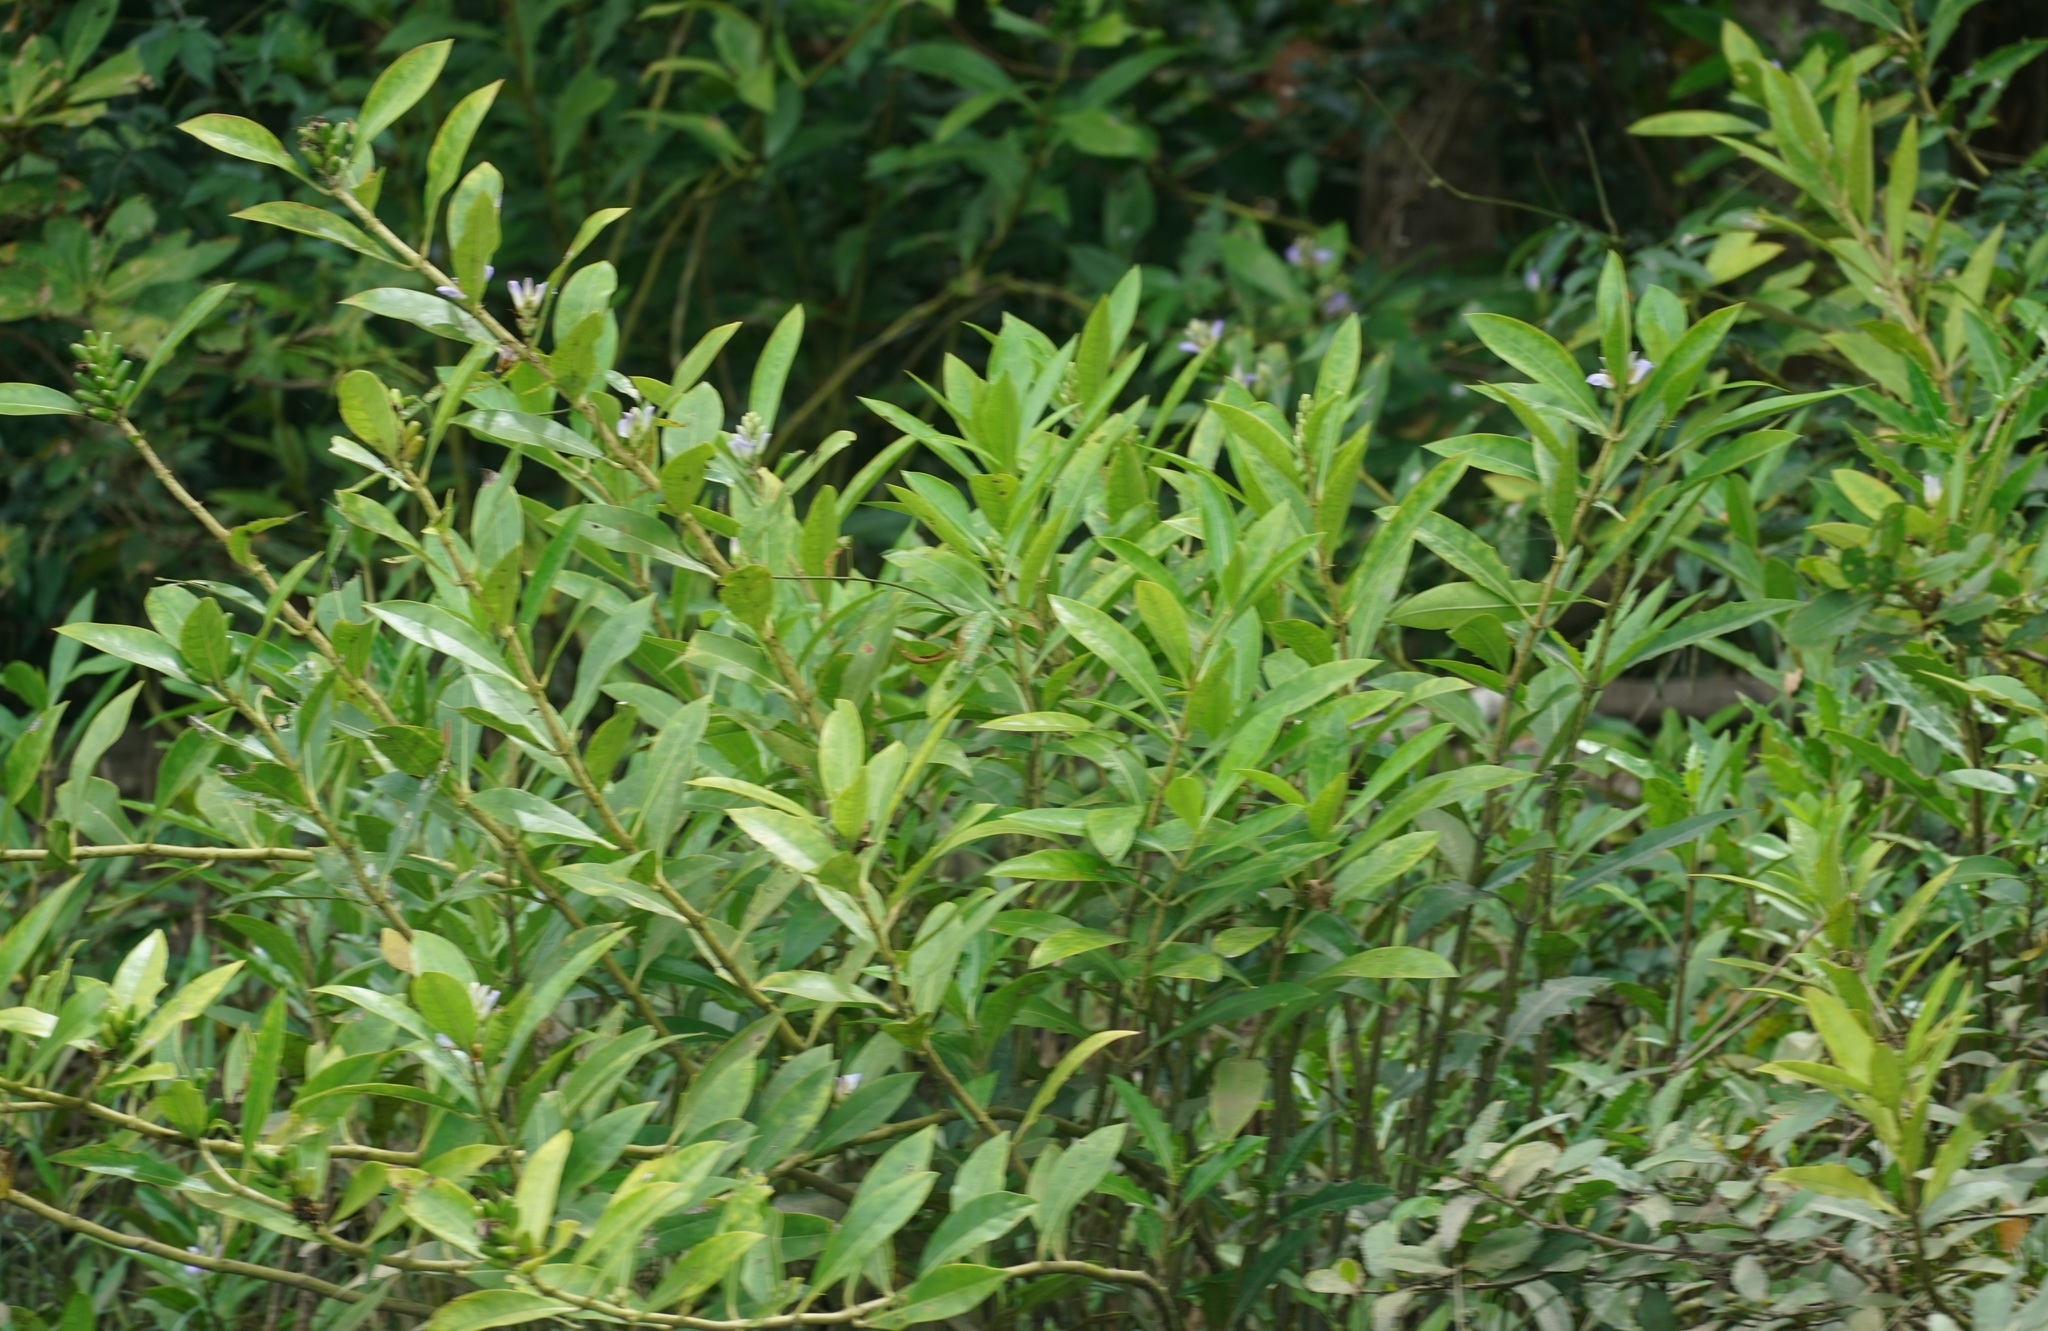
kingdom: Plantae
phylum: Tracheophyta
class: Magnoliopsida
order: Lamiales
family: Acanthaceae
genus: Acanthus
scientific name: Acanthus ilicifolius
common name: Holy mangrove
